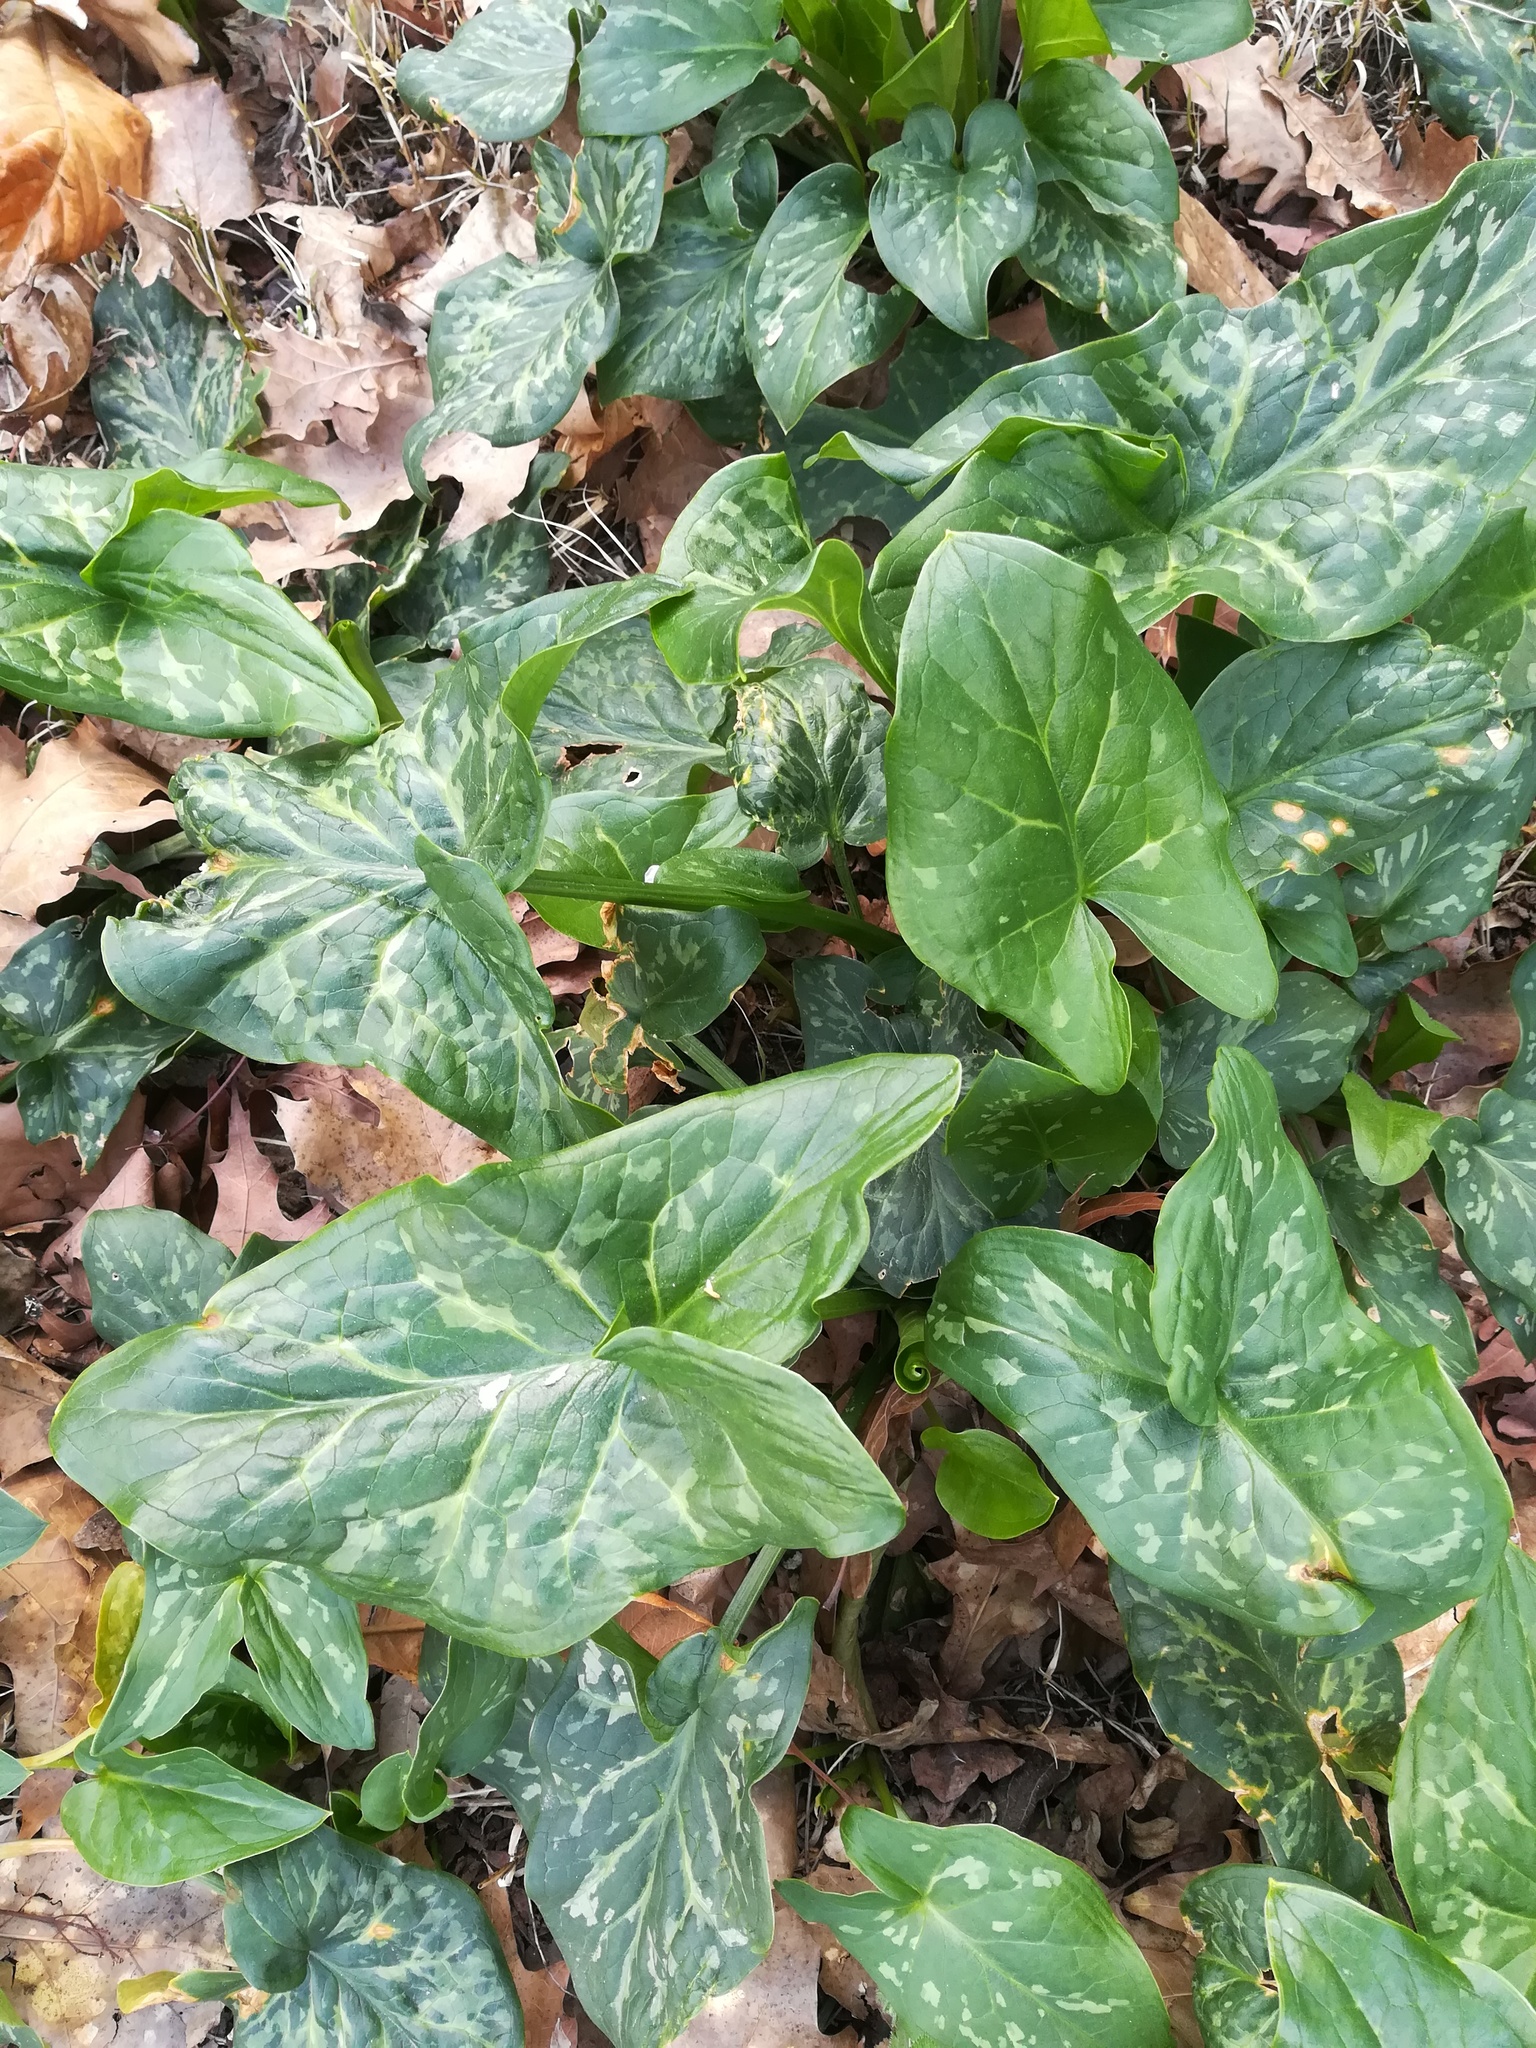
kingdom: Plantae
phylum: Tracheophyta
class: Liliopsida
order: Alismatales
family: Araceae
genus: Arum
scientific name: Arum italicum
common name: Italian lords-and-ladies
